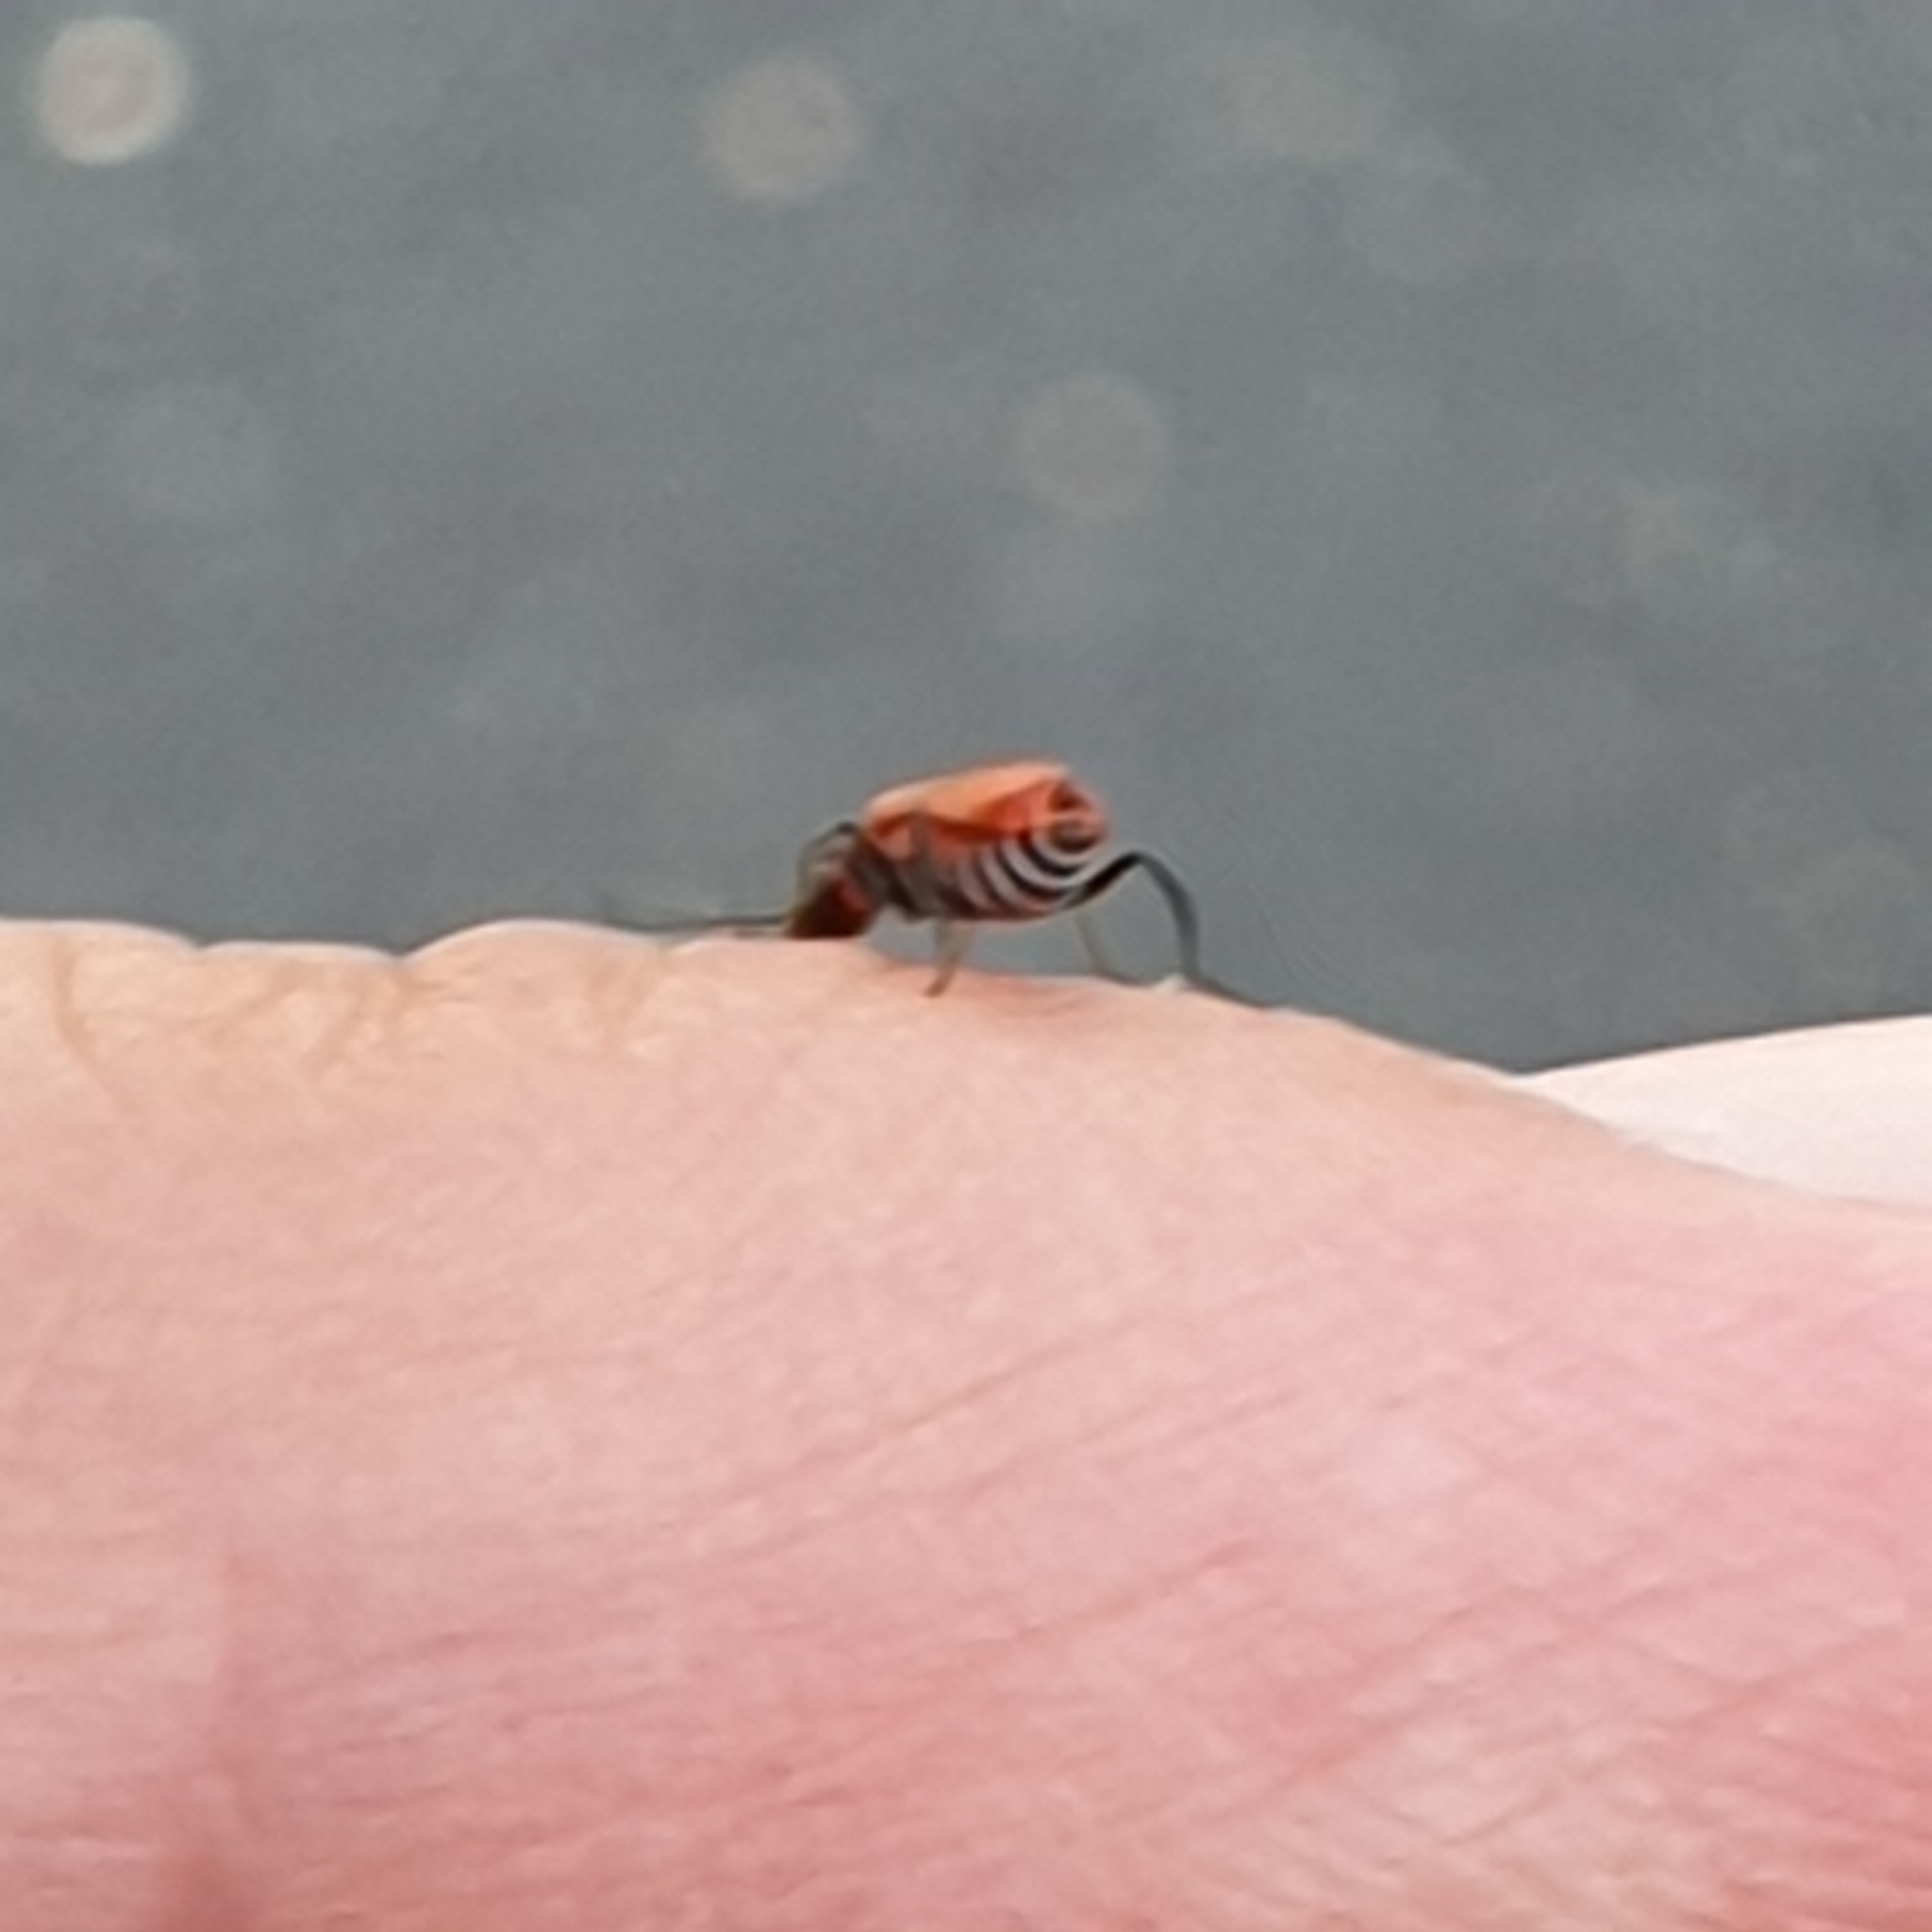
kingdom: Animalia
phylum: Arthropoda
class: Insecta
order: Coleoptera
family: Melyridae
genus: Anthocomus
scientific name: Anthocomus rufus
